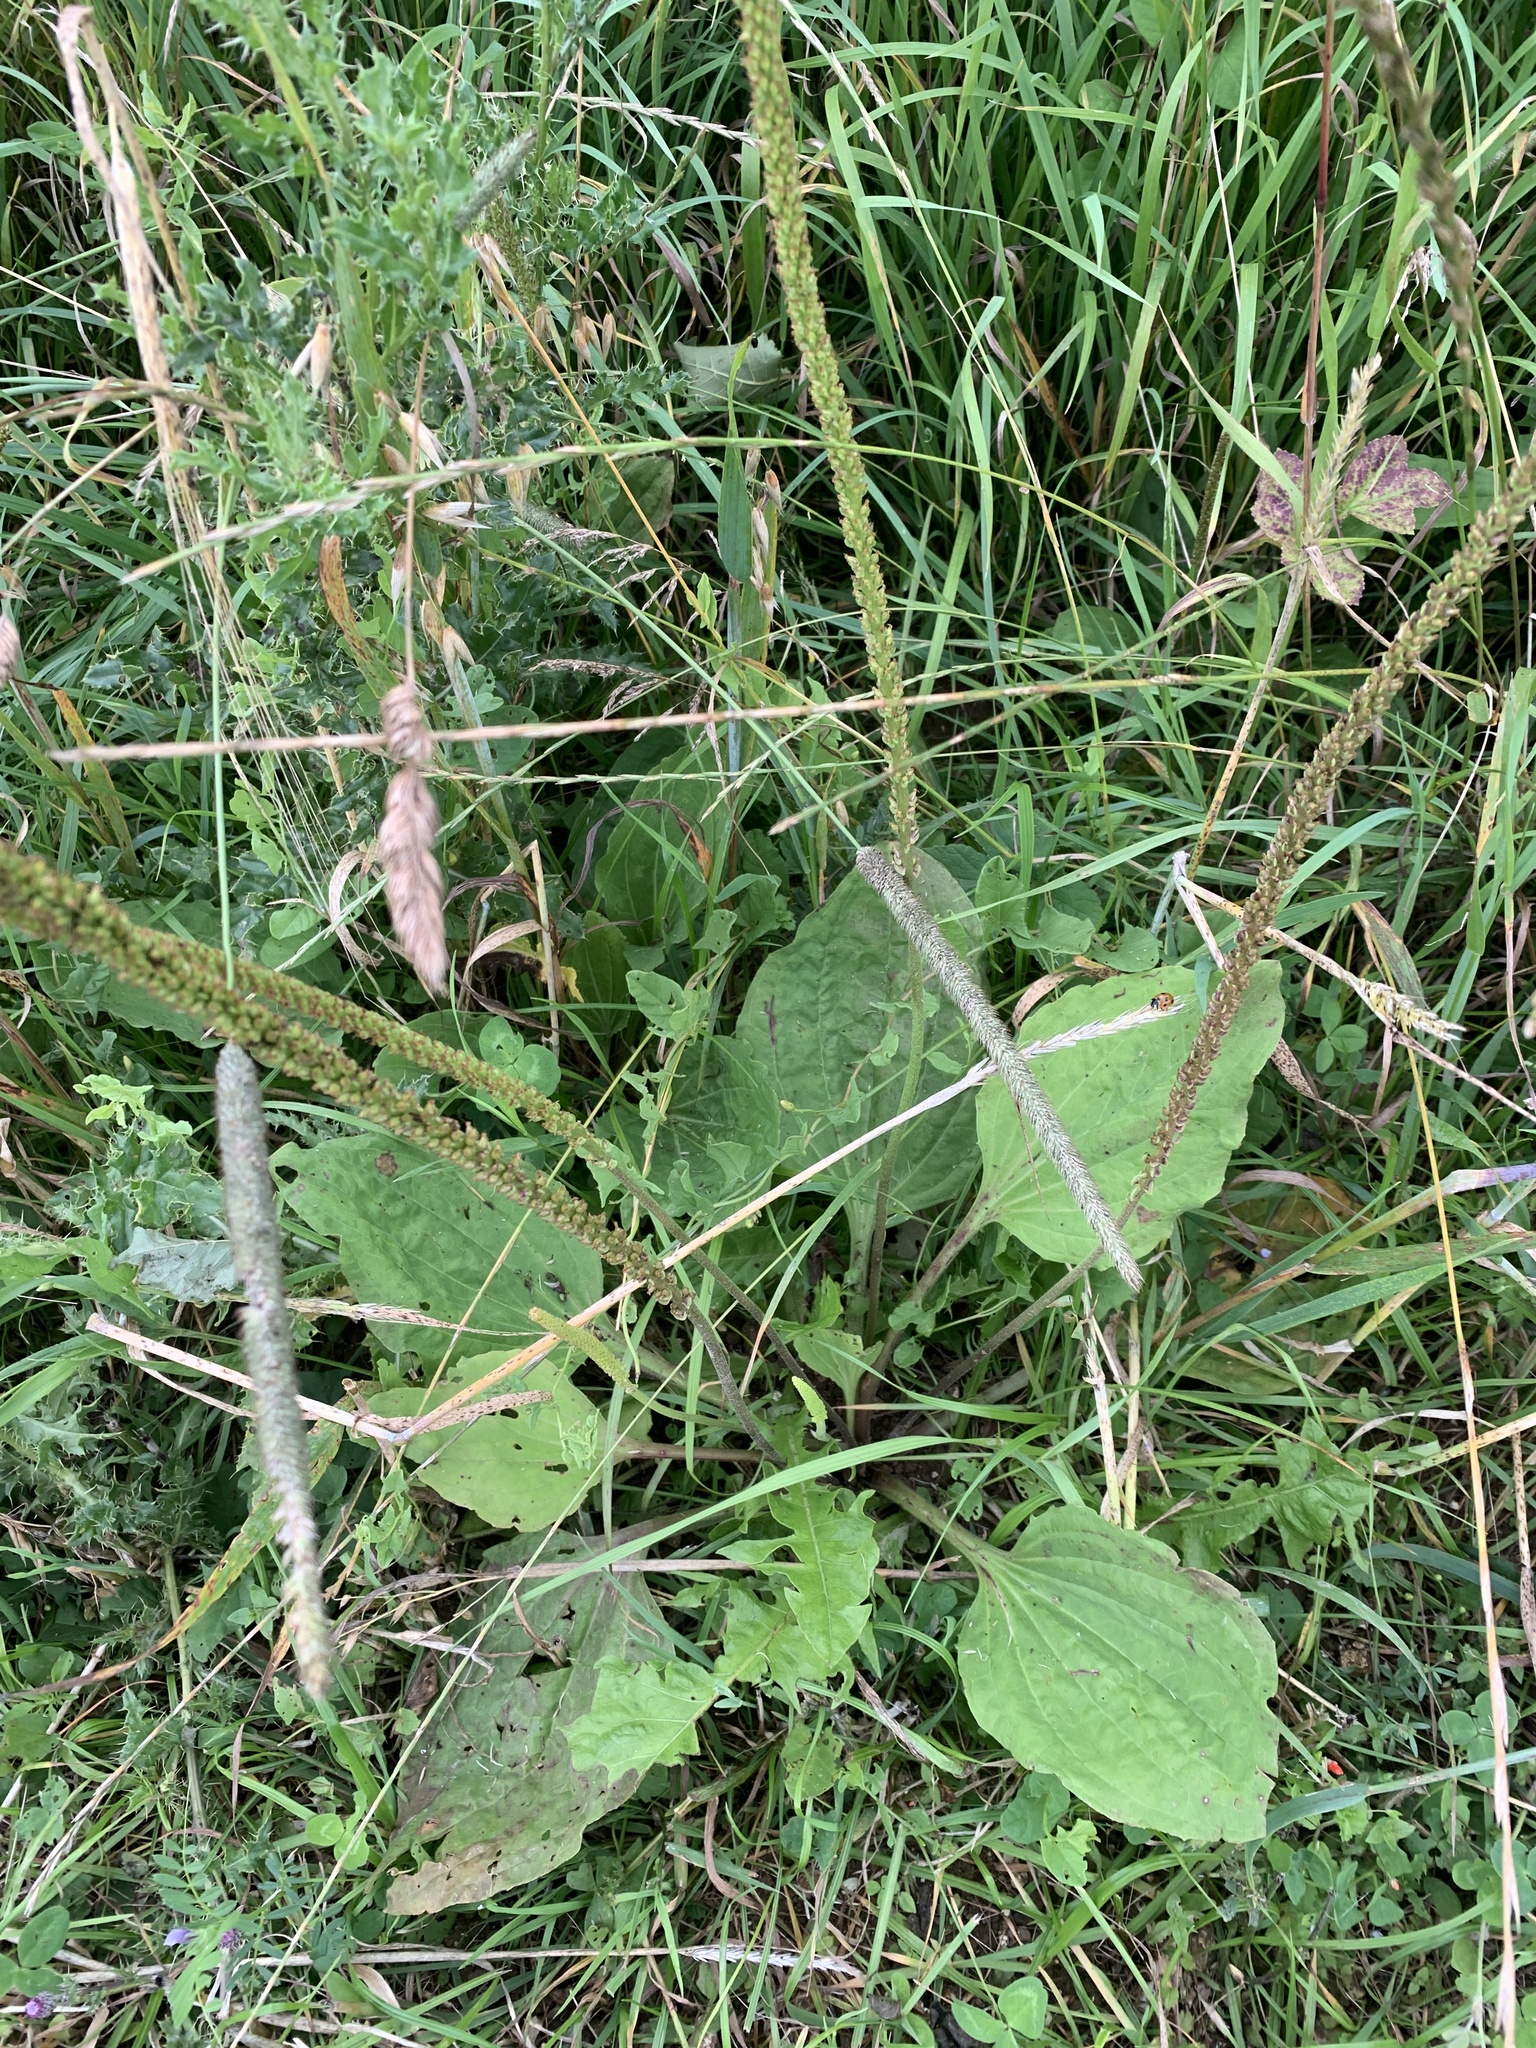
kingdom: Plantae
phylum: Tracheophyta
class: Magnoliopsida
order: Lamiales
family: Plantaginaceae
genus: Plantago
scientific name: Plantago major
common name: Common plantain
